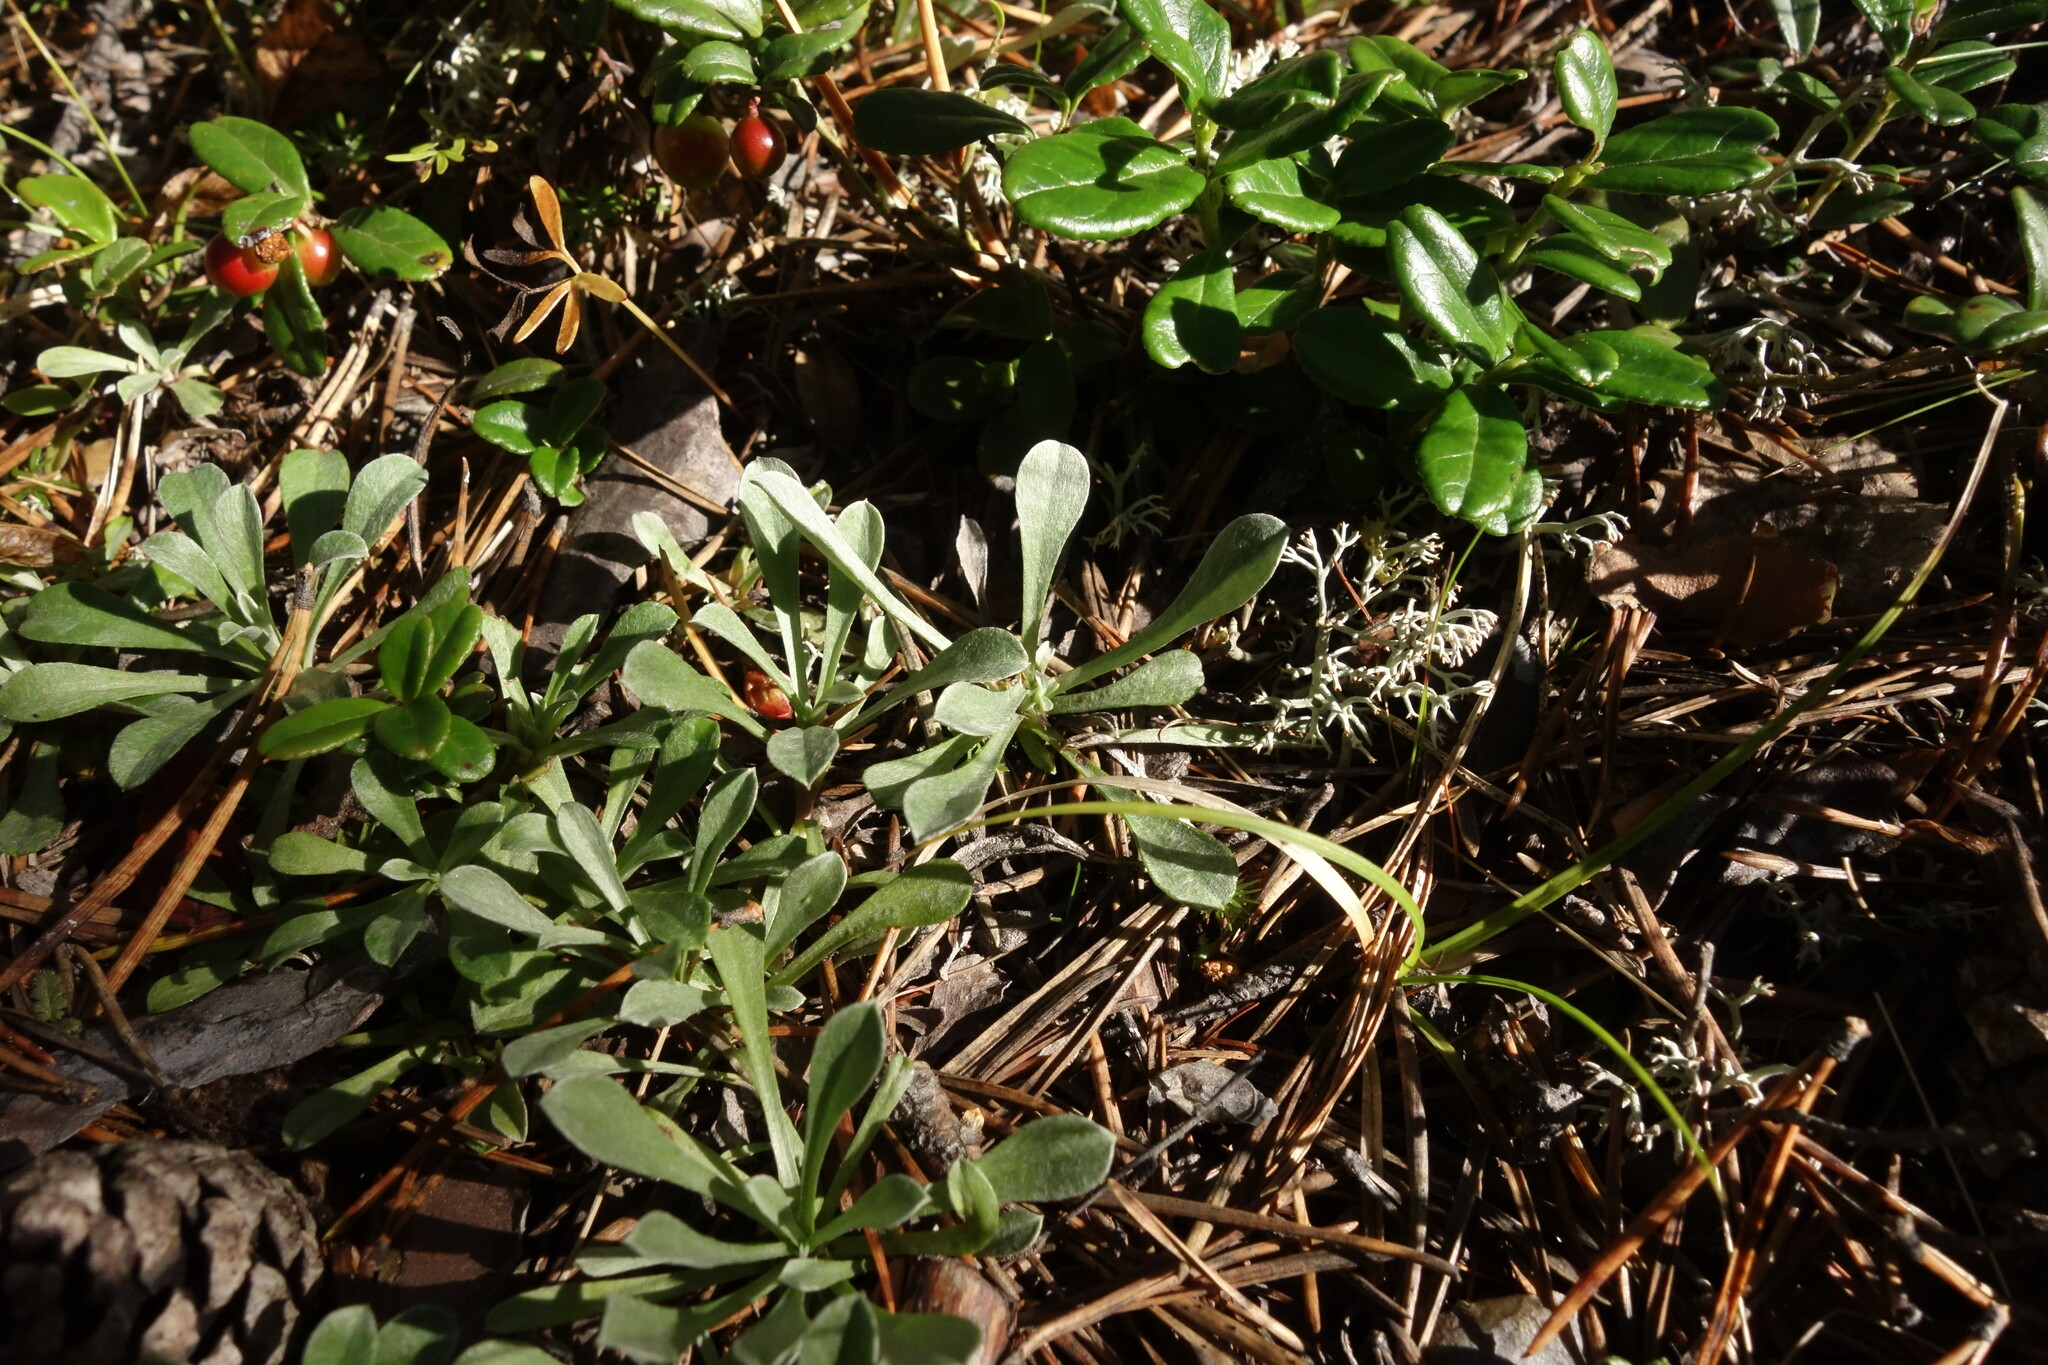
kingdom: Plantae
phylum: Tracheophyta
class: Magnoliopsida
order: Asterales
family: Asteraceae
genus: Antennaria
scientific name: Antennaria dioica
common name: Mountain everlasting
